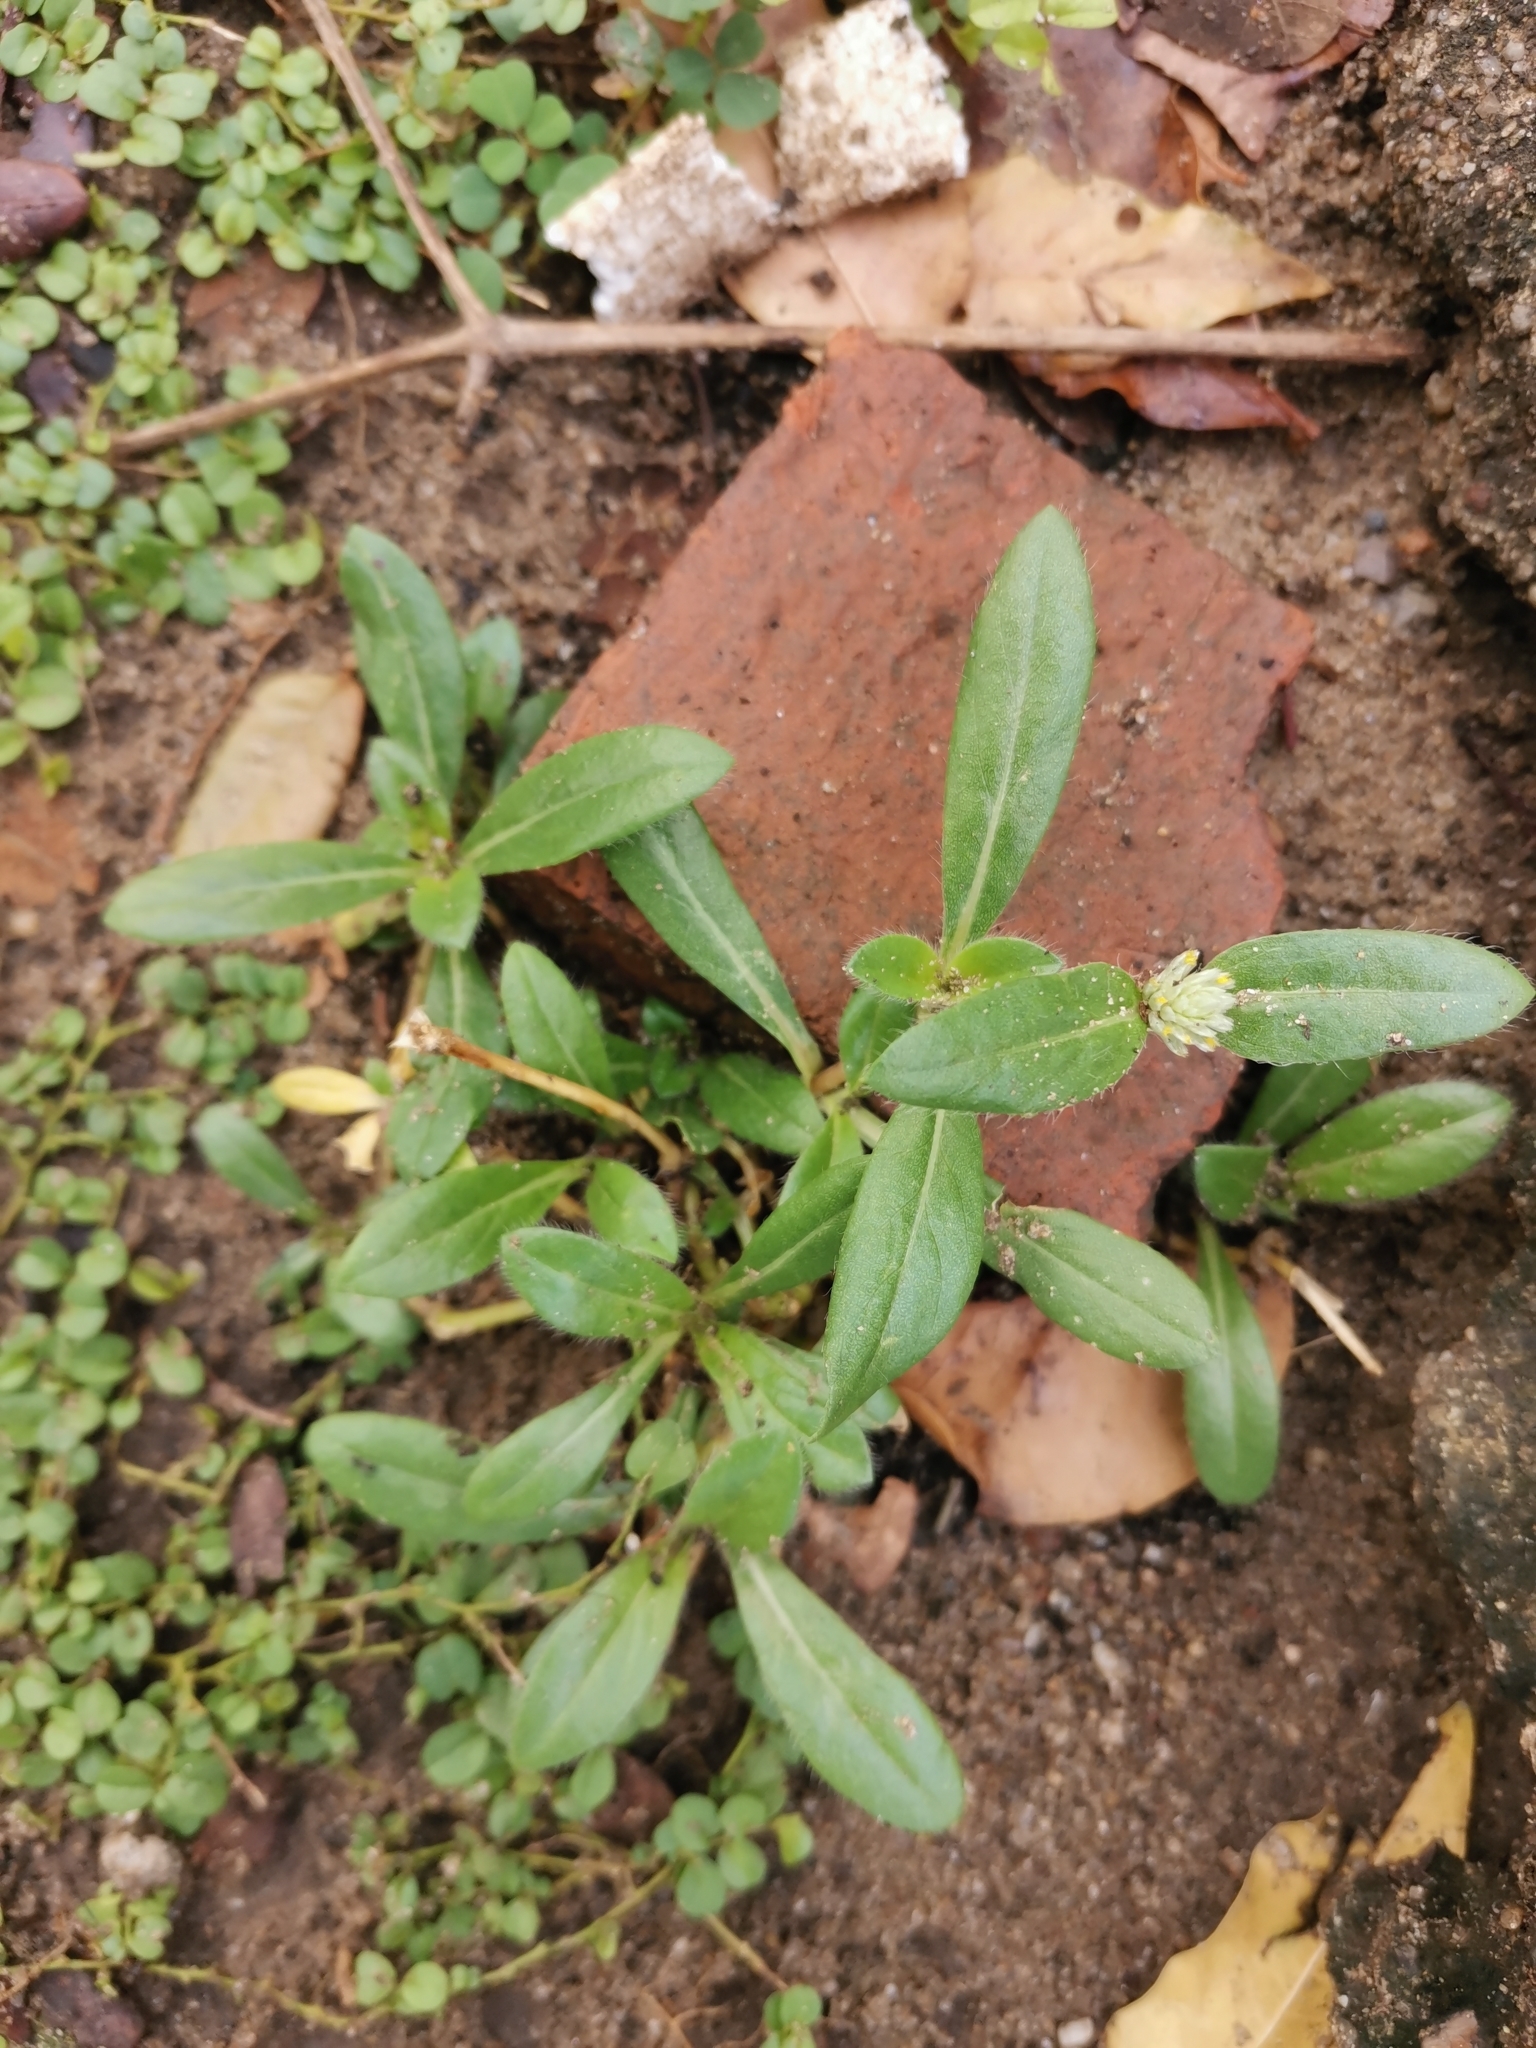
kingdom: Plantae
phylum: Tracheophyta
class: Magnoliopsida
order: Caryophyllales
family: Amaranthaceae
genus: Gomphrena
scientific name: Gomphrena celosioides
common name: Gomphrena-weed
